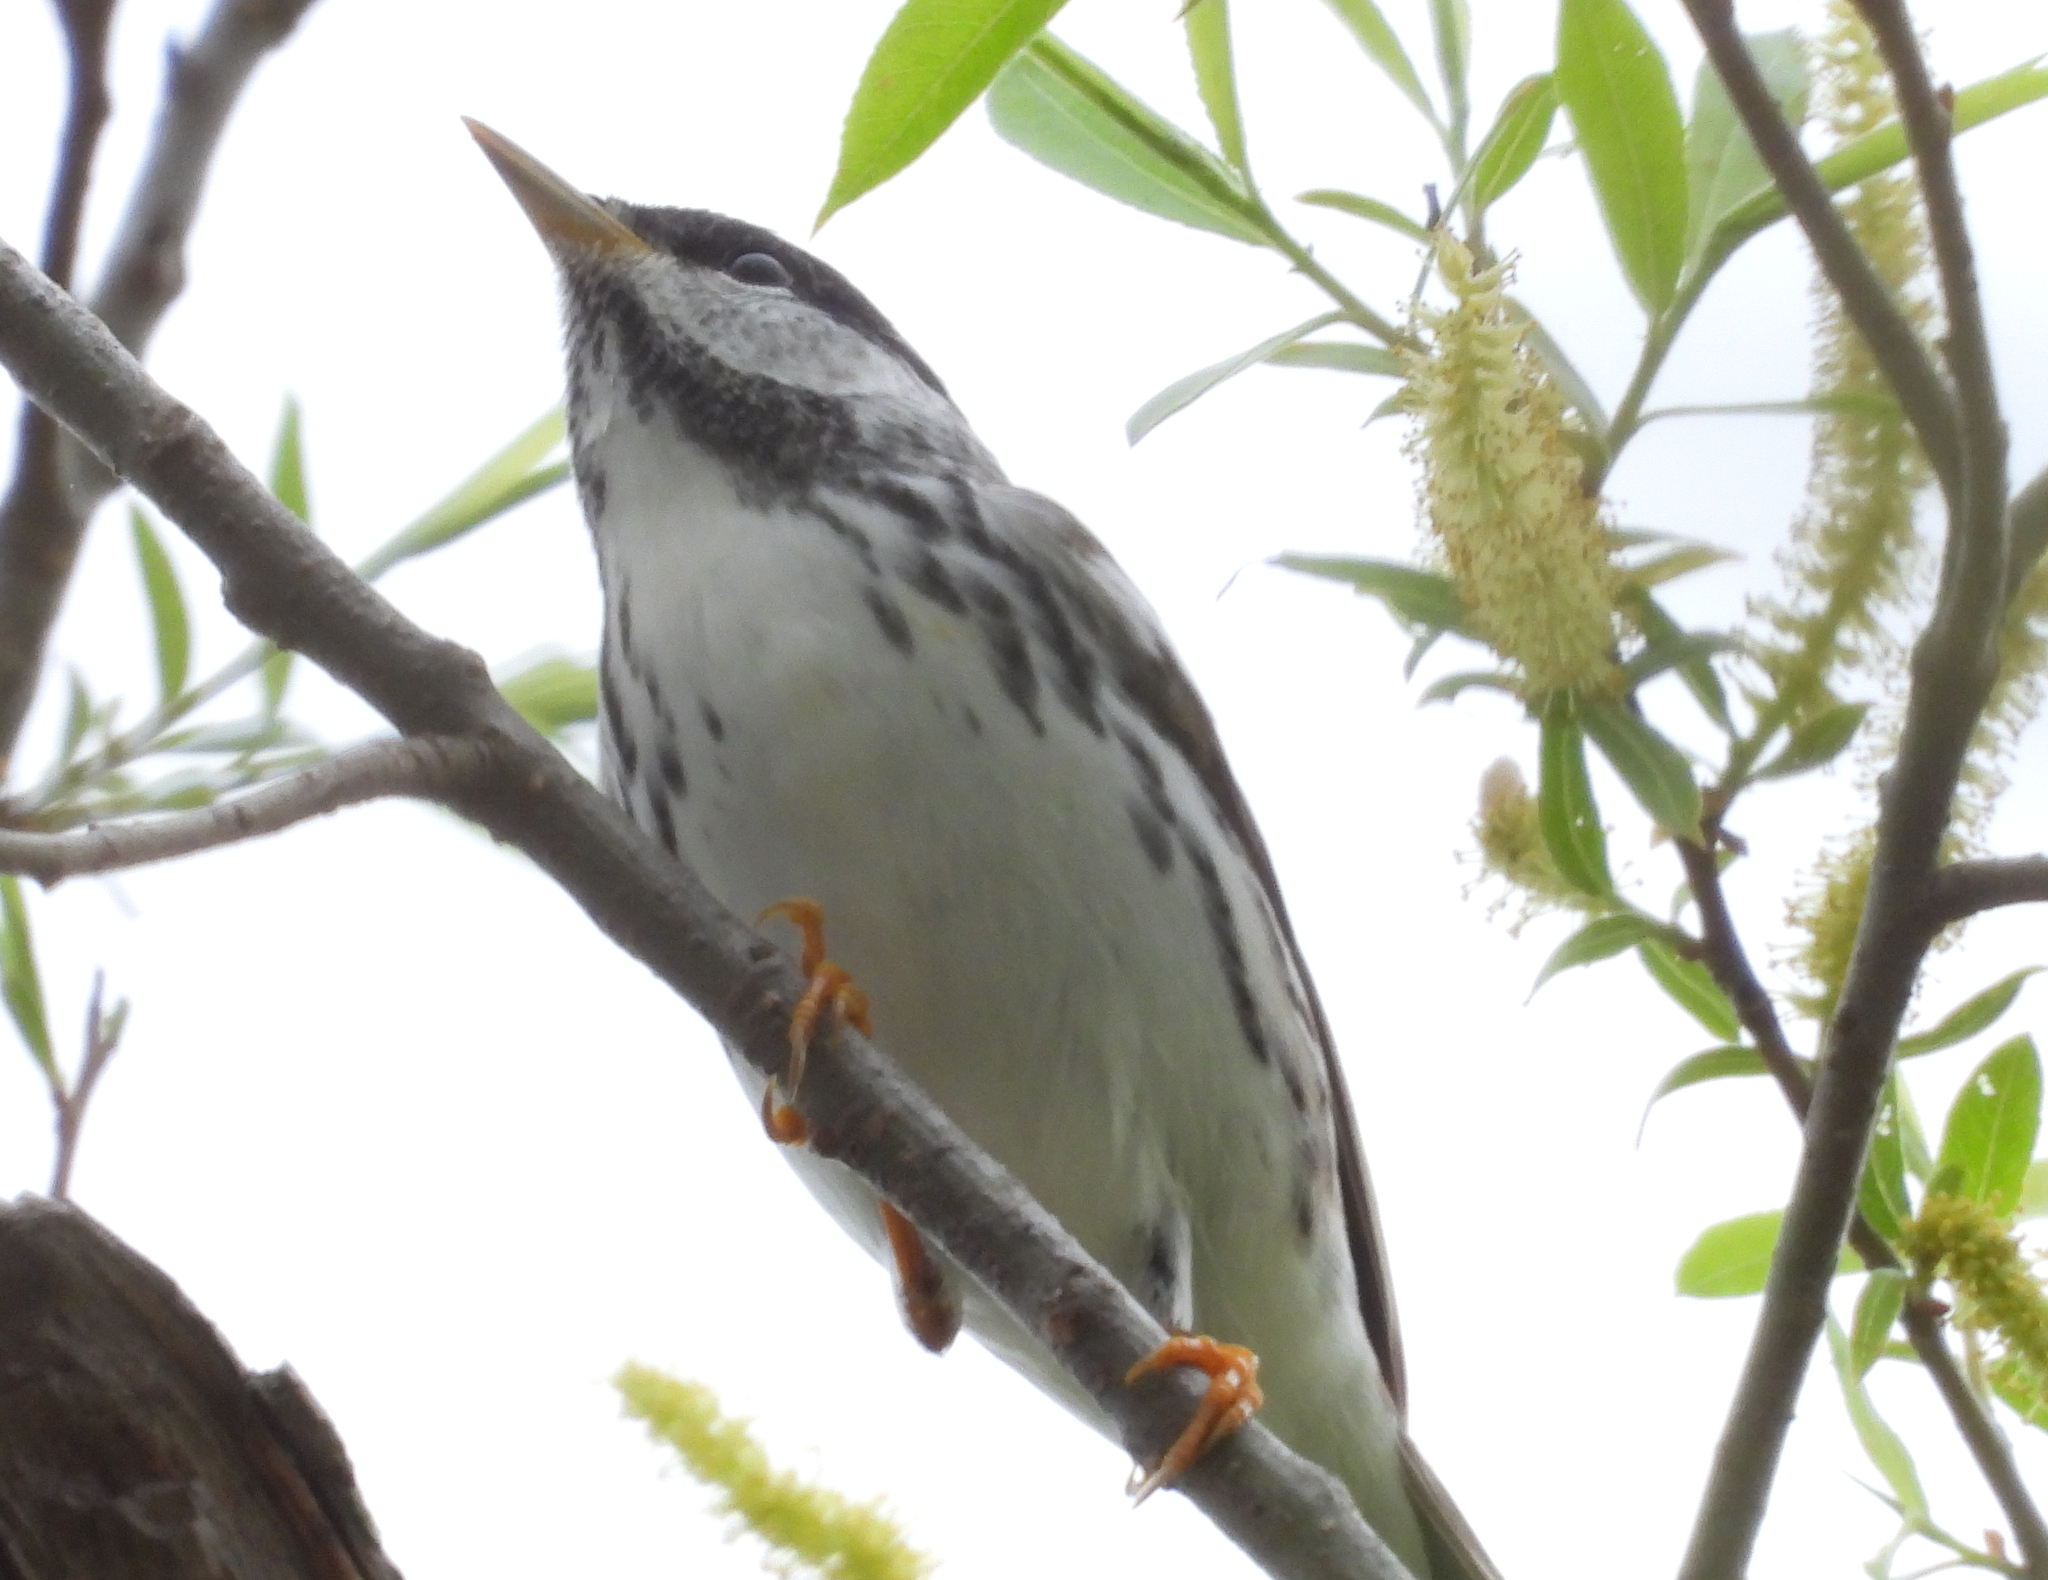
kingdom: Animalia
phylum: Chordata
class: Aves
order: Passeriformes
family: Parulidae
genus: Setophaga
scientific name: Setophaga striata
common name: Blackpoll warbler
